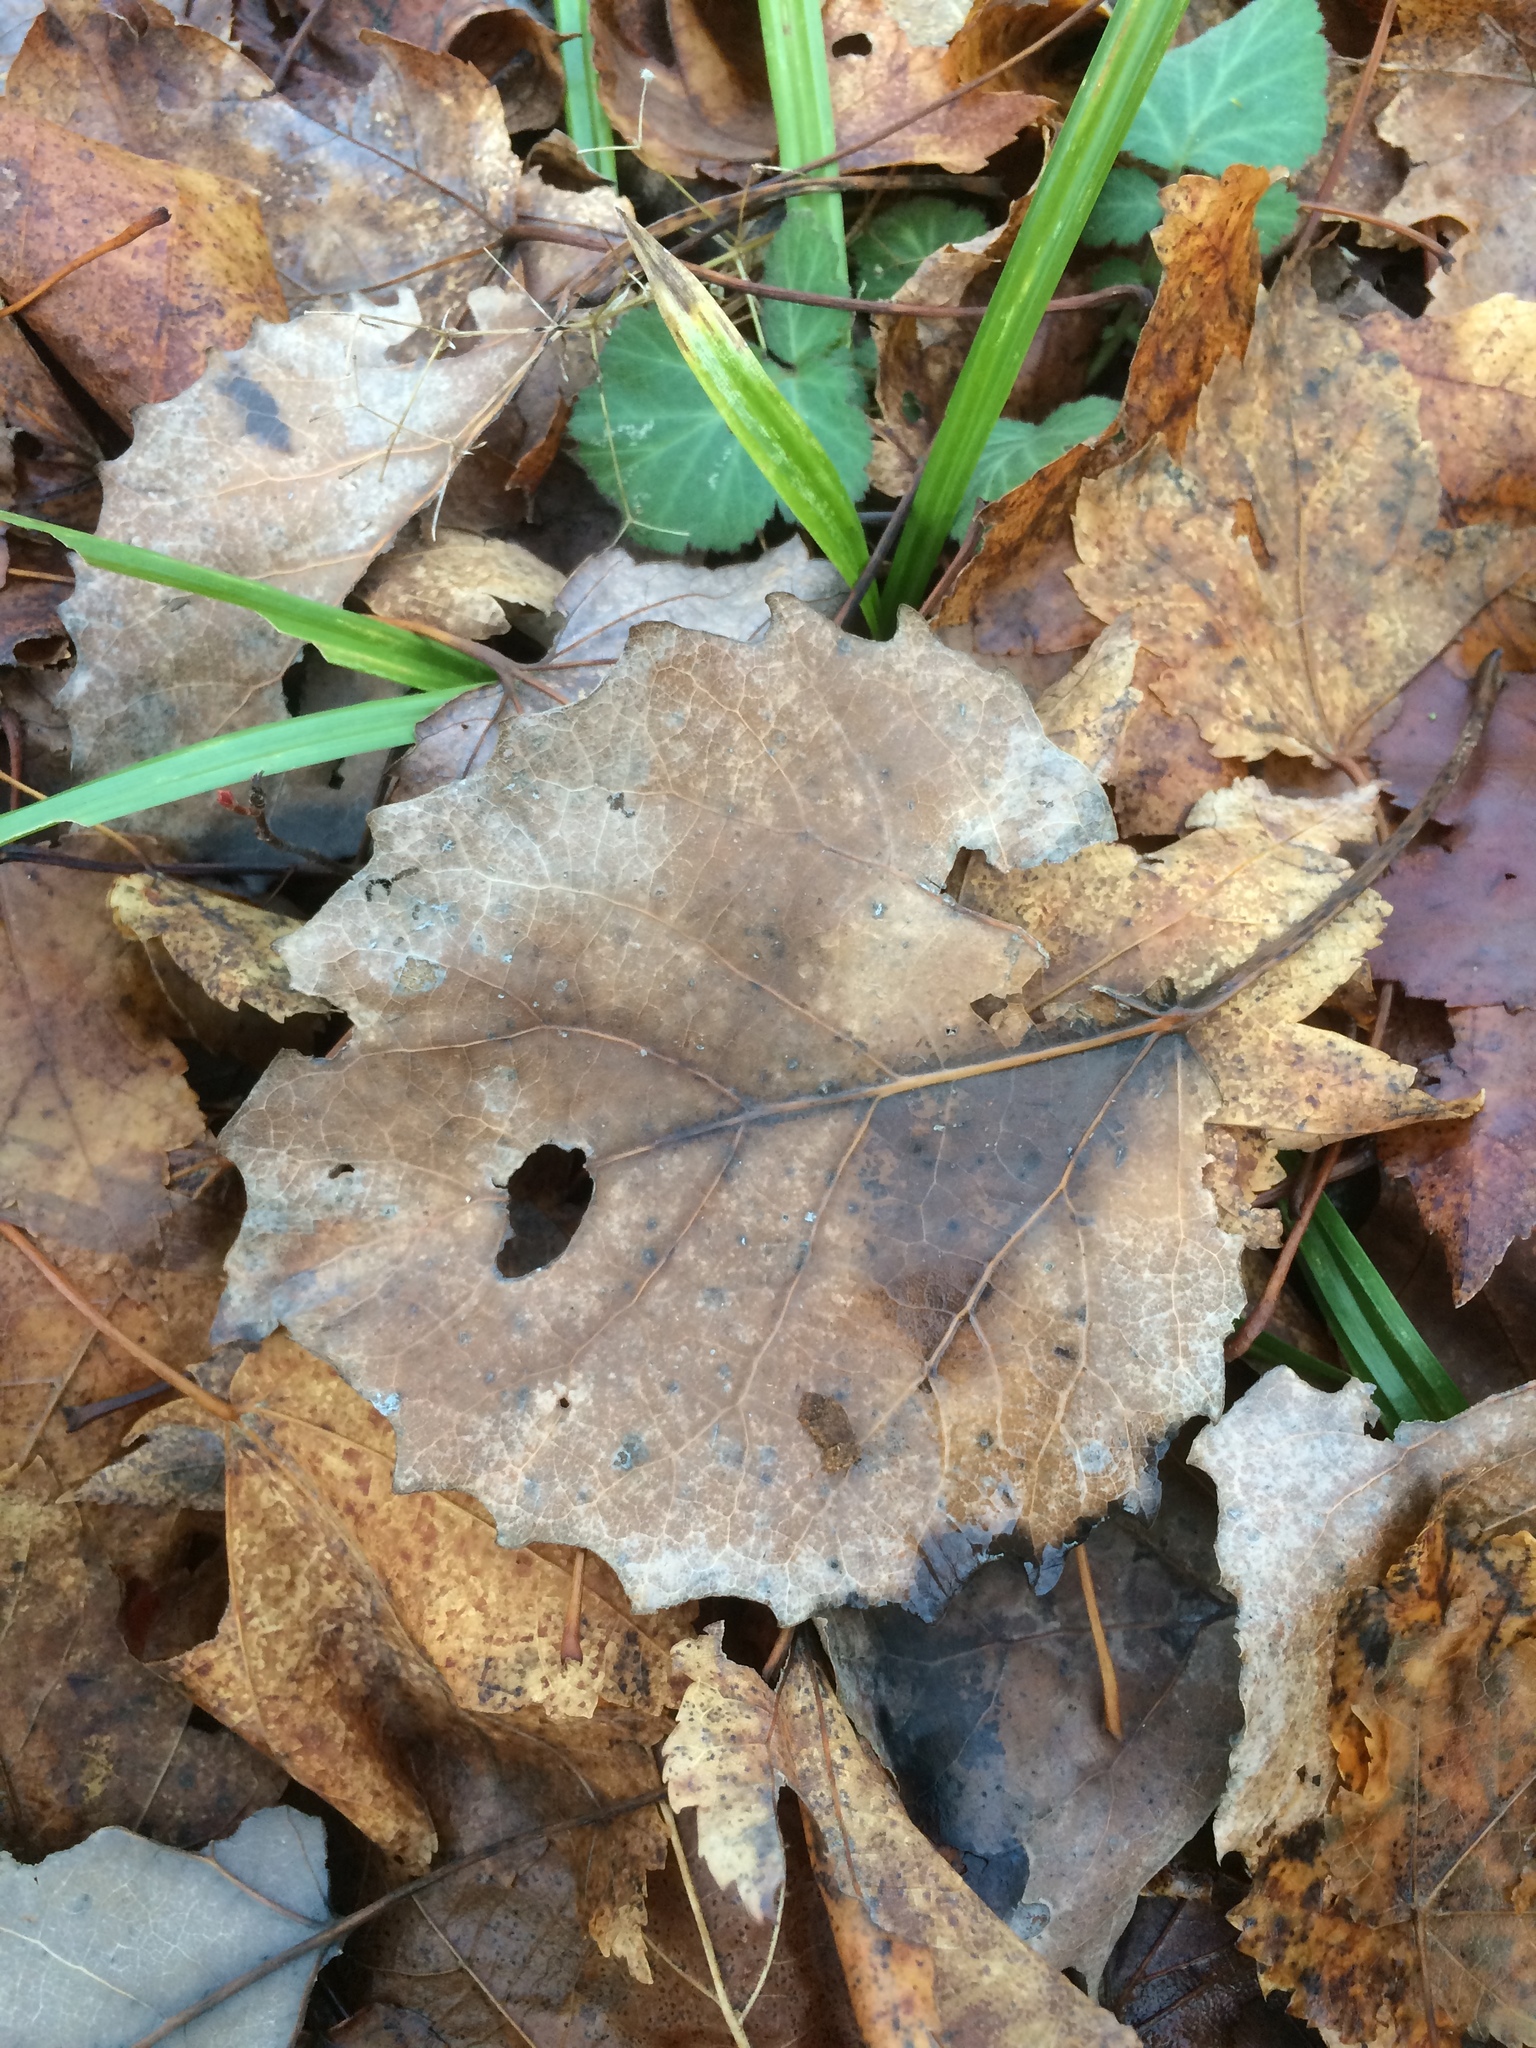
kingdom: Plantae
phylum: Tracheophyta
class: Magnoliopsida
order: Malpighiales
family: Salicaceae
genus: Populus
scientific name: Populus grandidentata
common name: Bigtooth aspen
